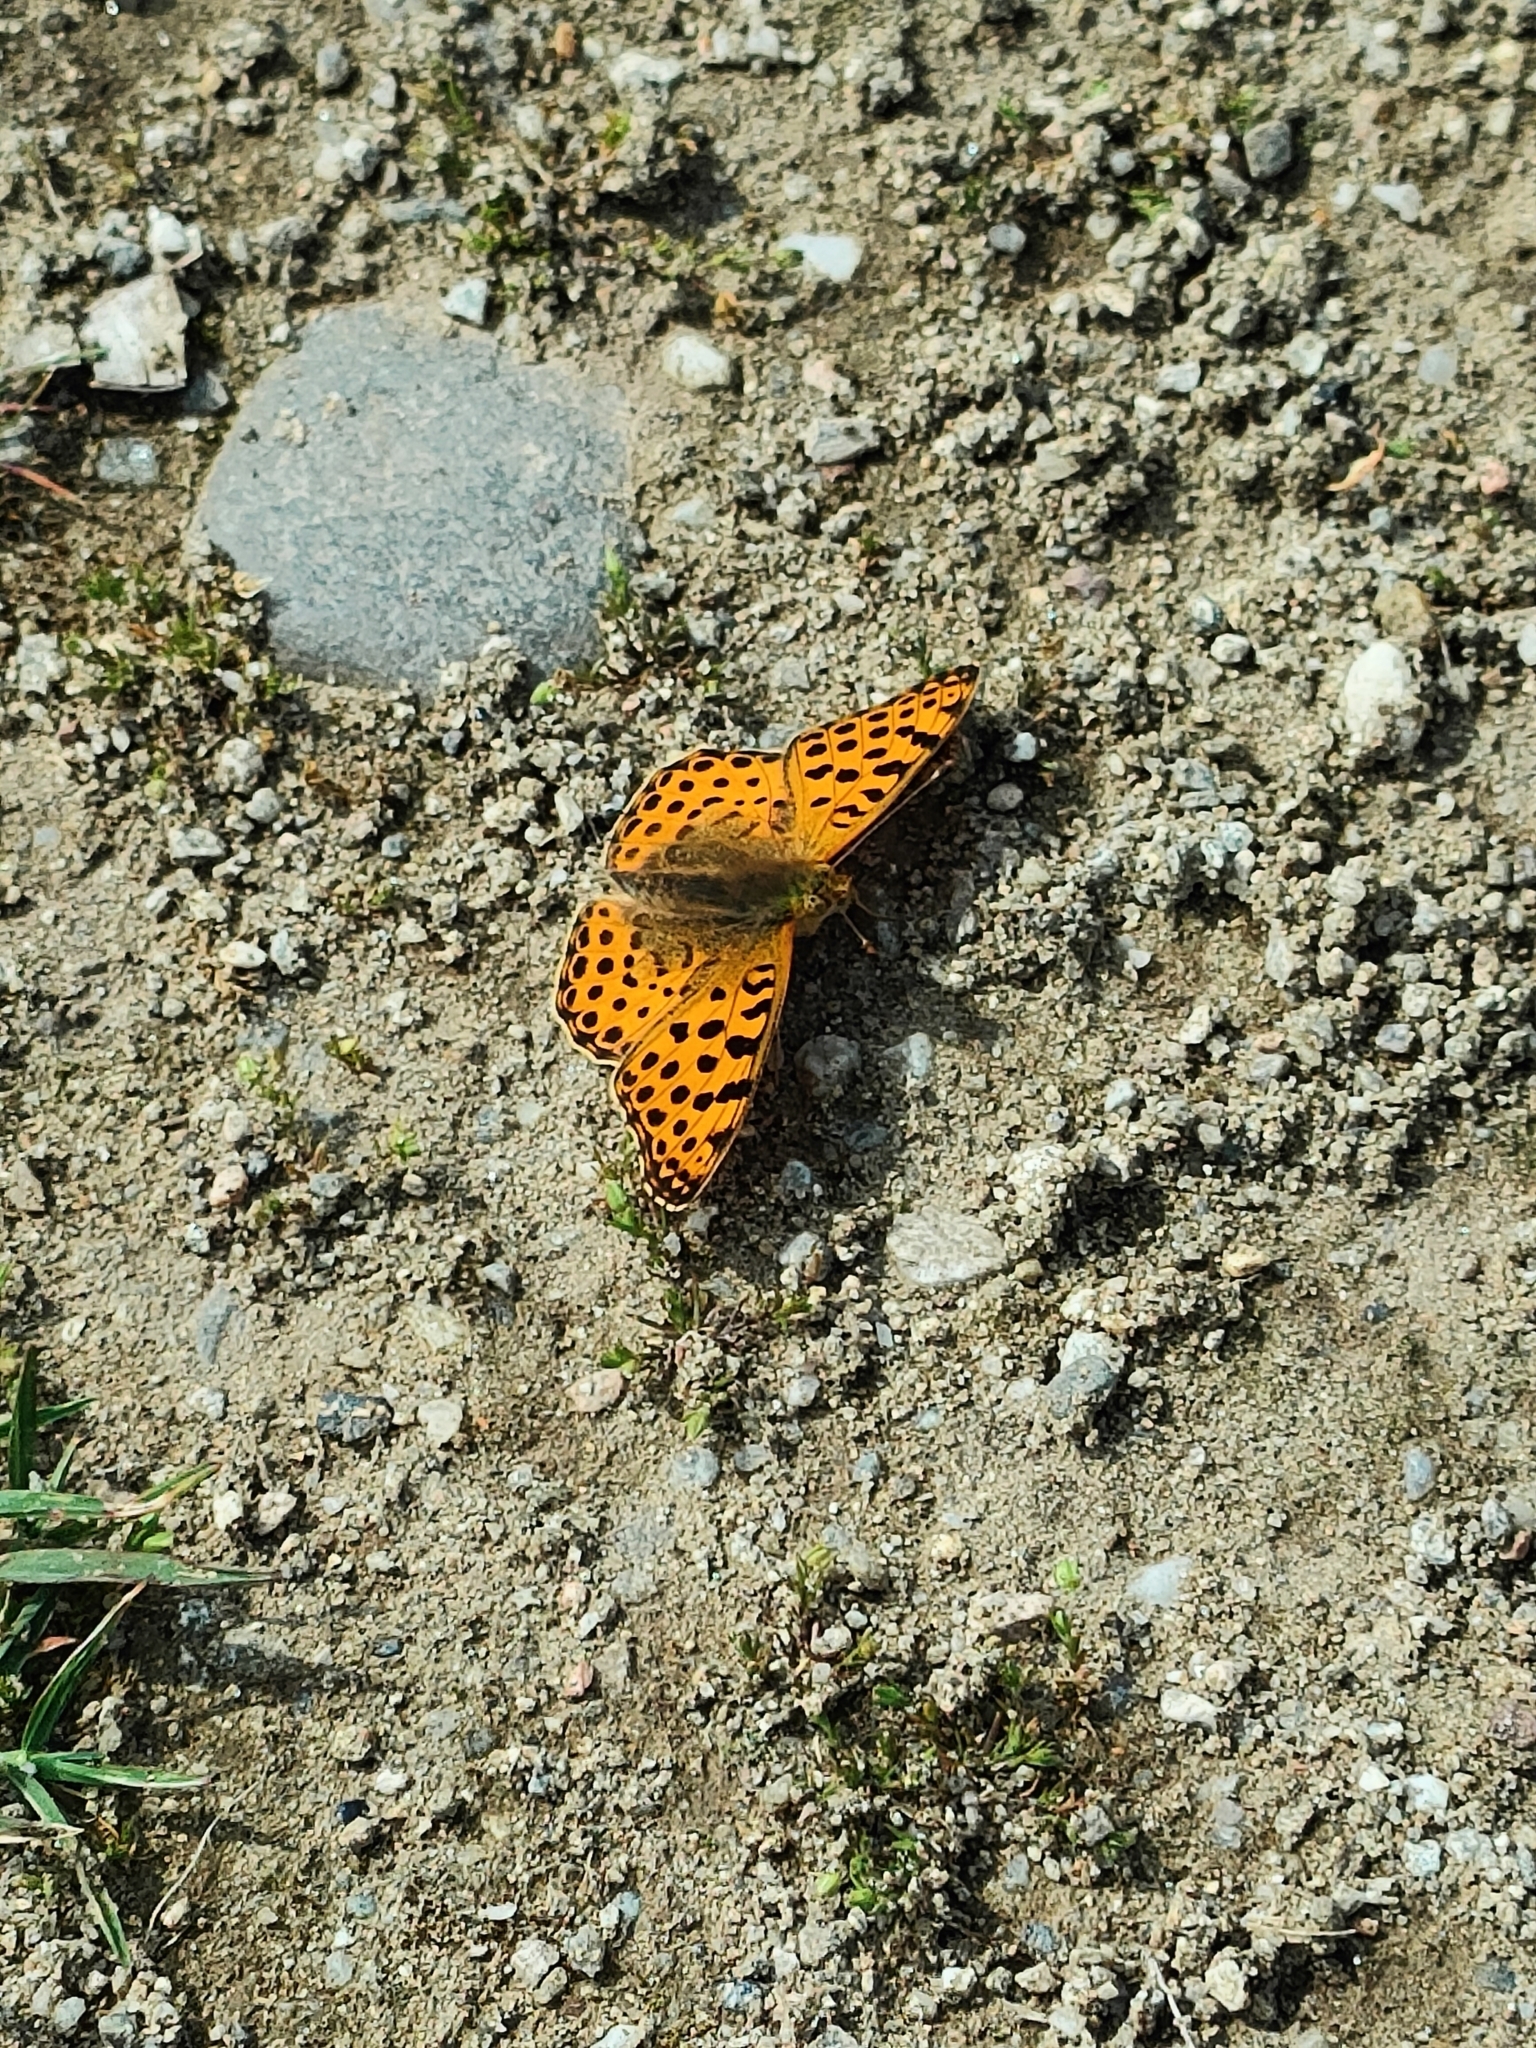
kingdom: Animalia
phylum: Arthropoda
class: Insecta
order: Lepidoptera
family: Nymphalidae
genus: Issoria
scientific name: Issoria lathonia
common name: Queen of spain fritillary
